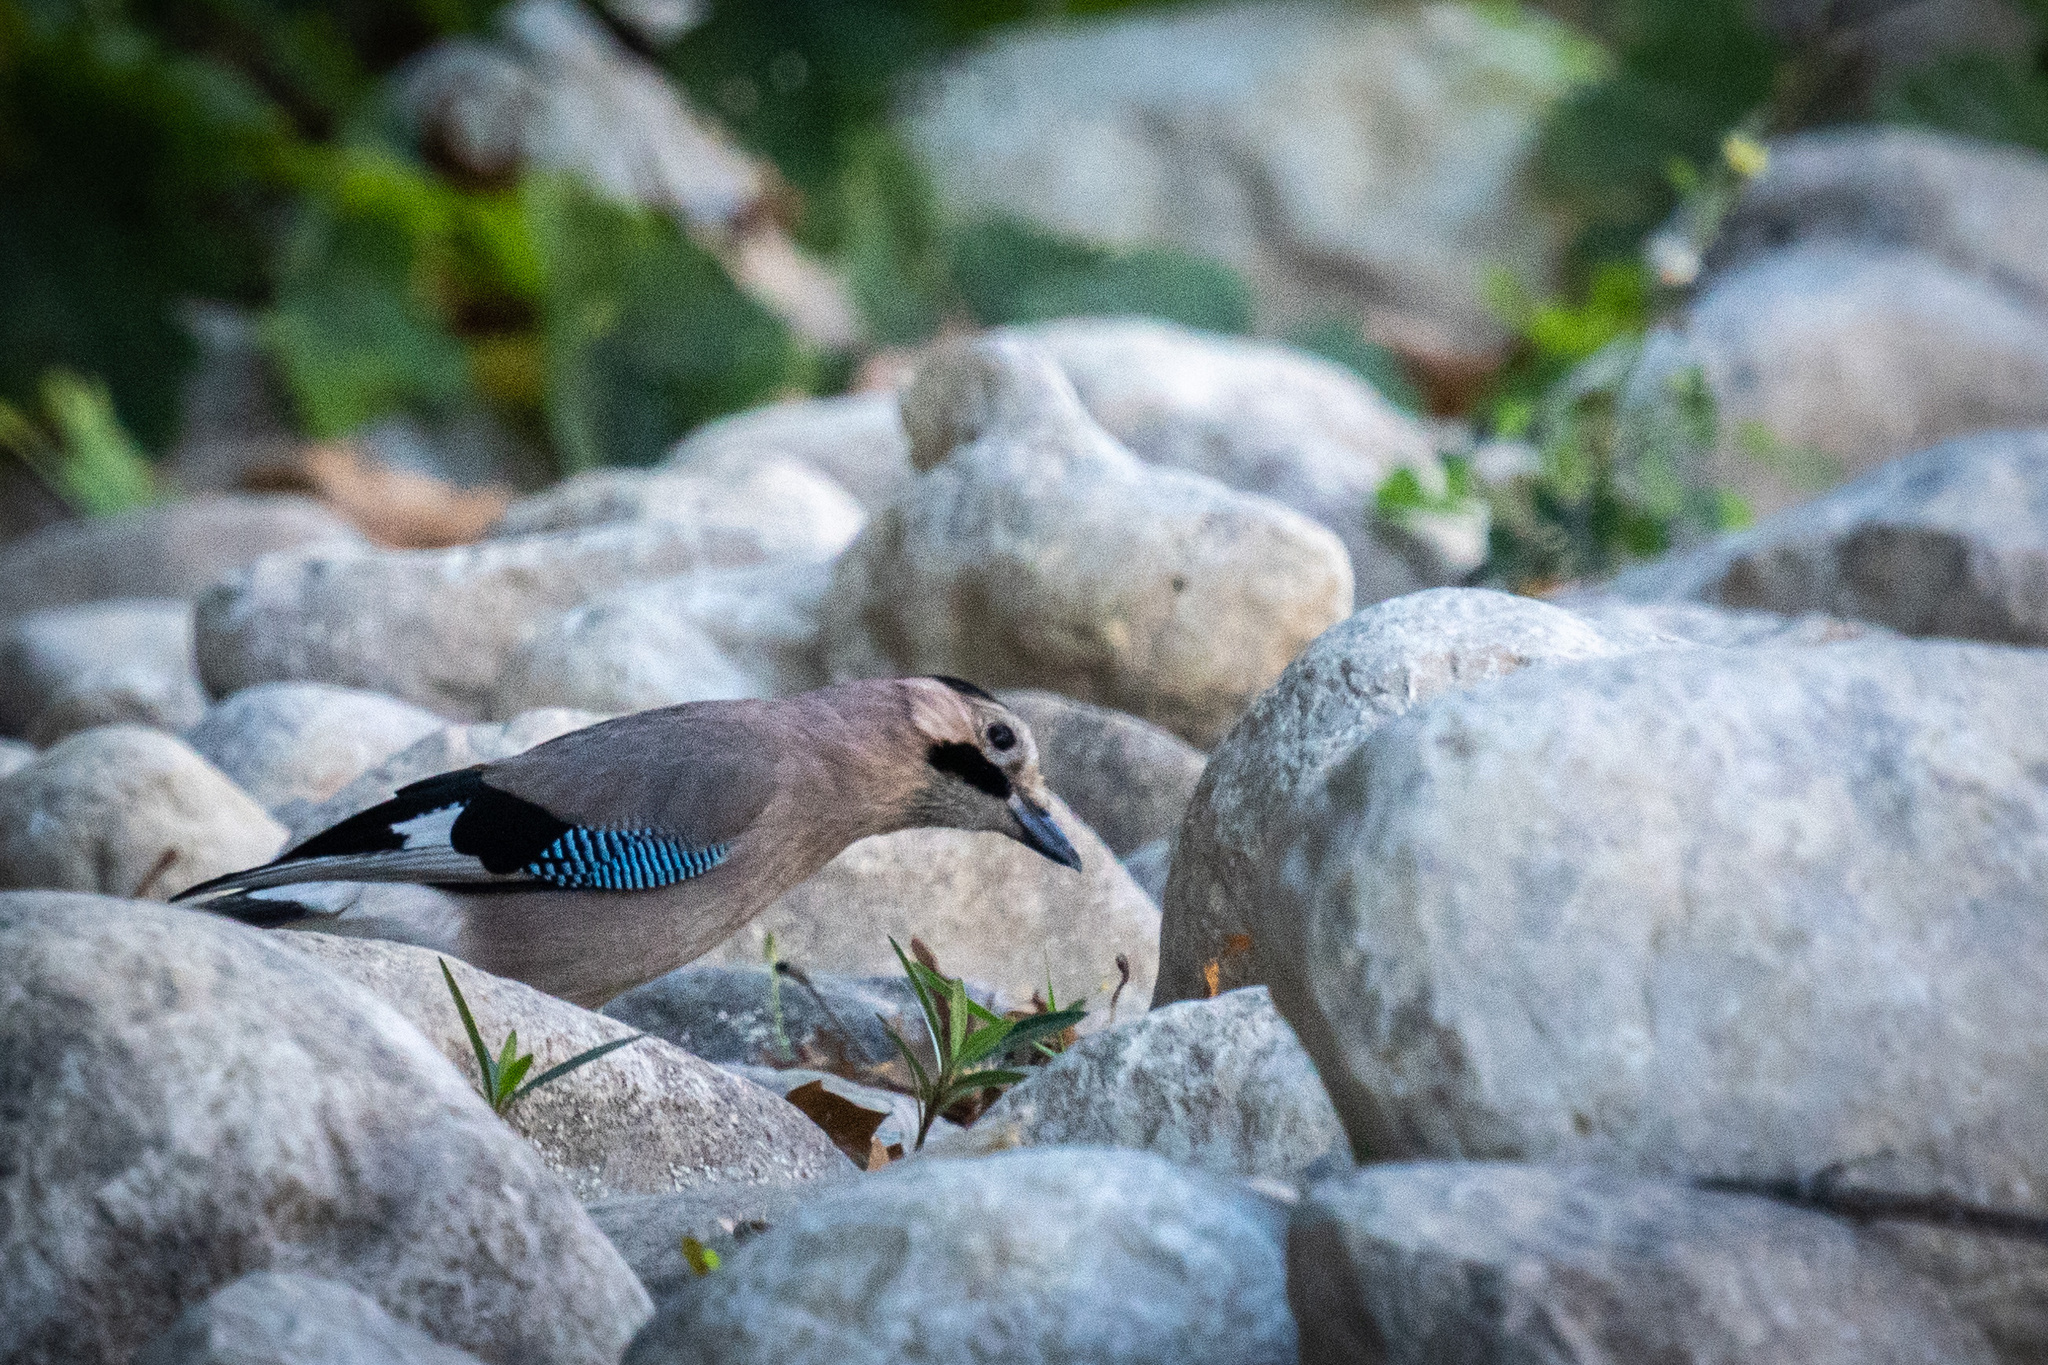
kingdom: Animalia
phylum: Chordata
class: Aves
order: Passeriformes
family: Corvidae
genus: Garrulus
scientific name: Garrulus glandarius
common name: Eurasian jay
